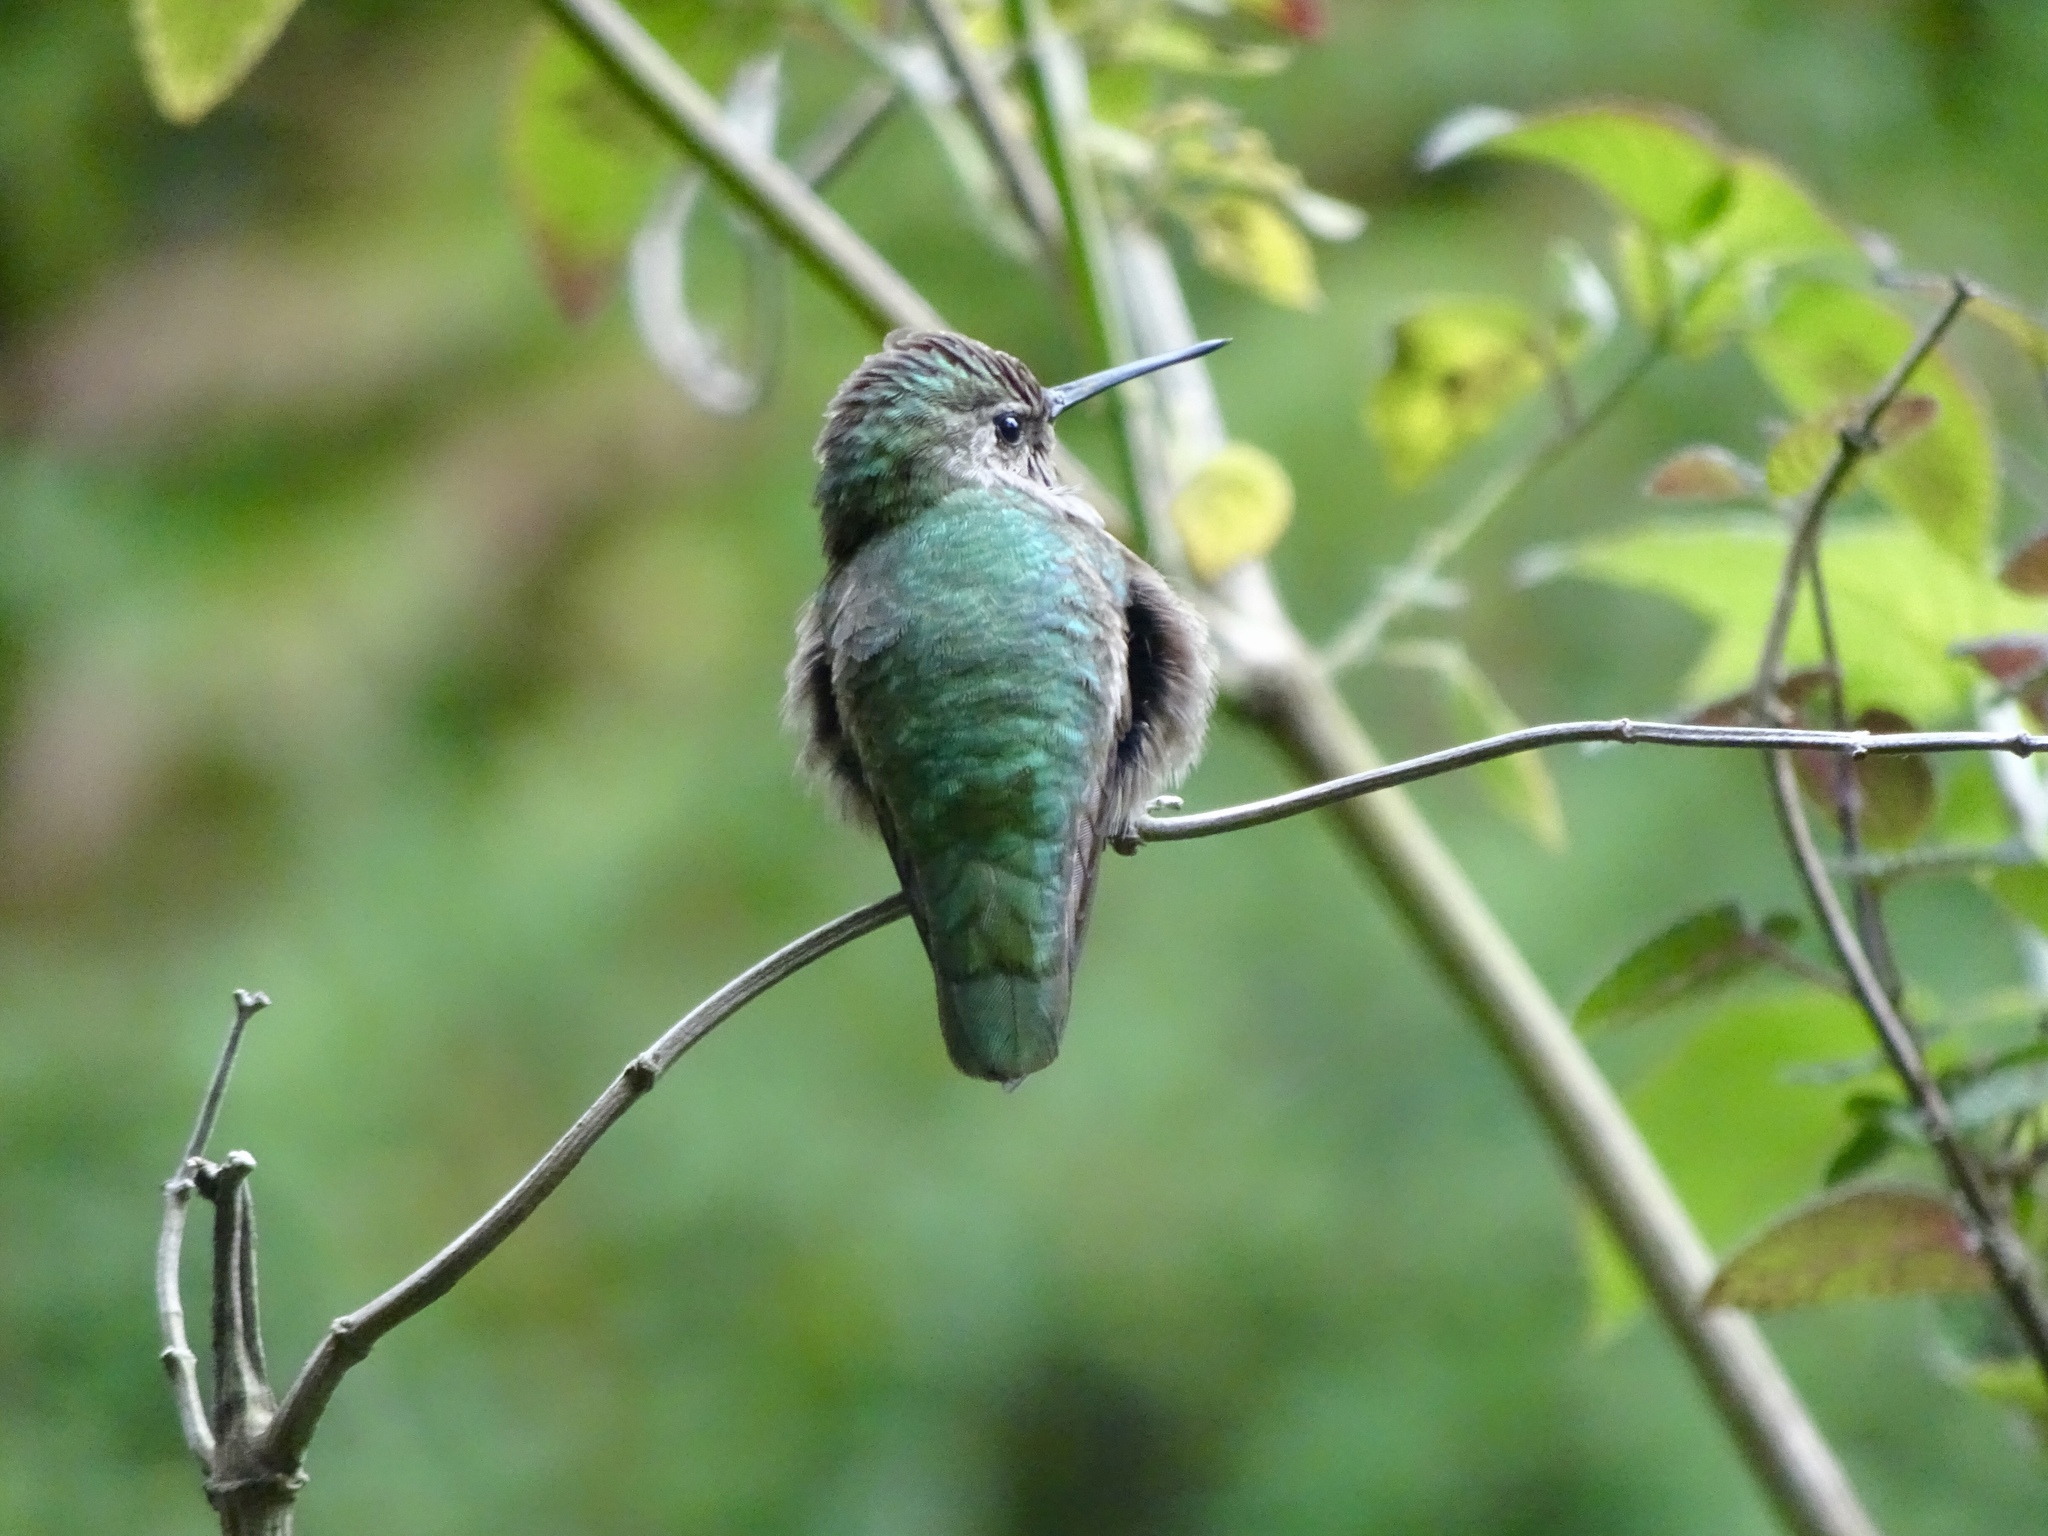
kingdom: Animalia
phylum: Chordata
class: Aves
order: Apodiformes
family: Trochilidae
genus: Calypte
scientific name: Calypte anna
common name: Anna's hummingbird
